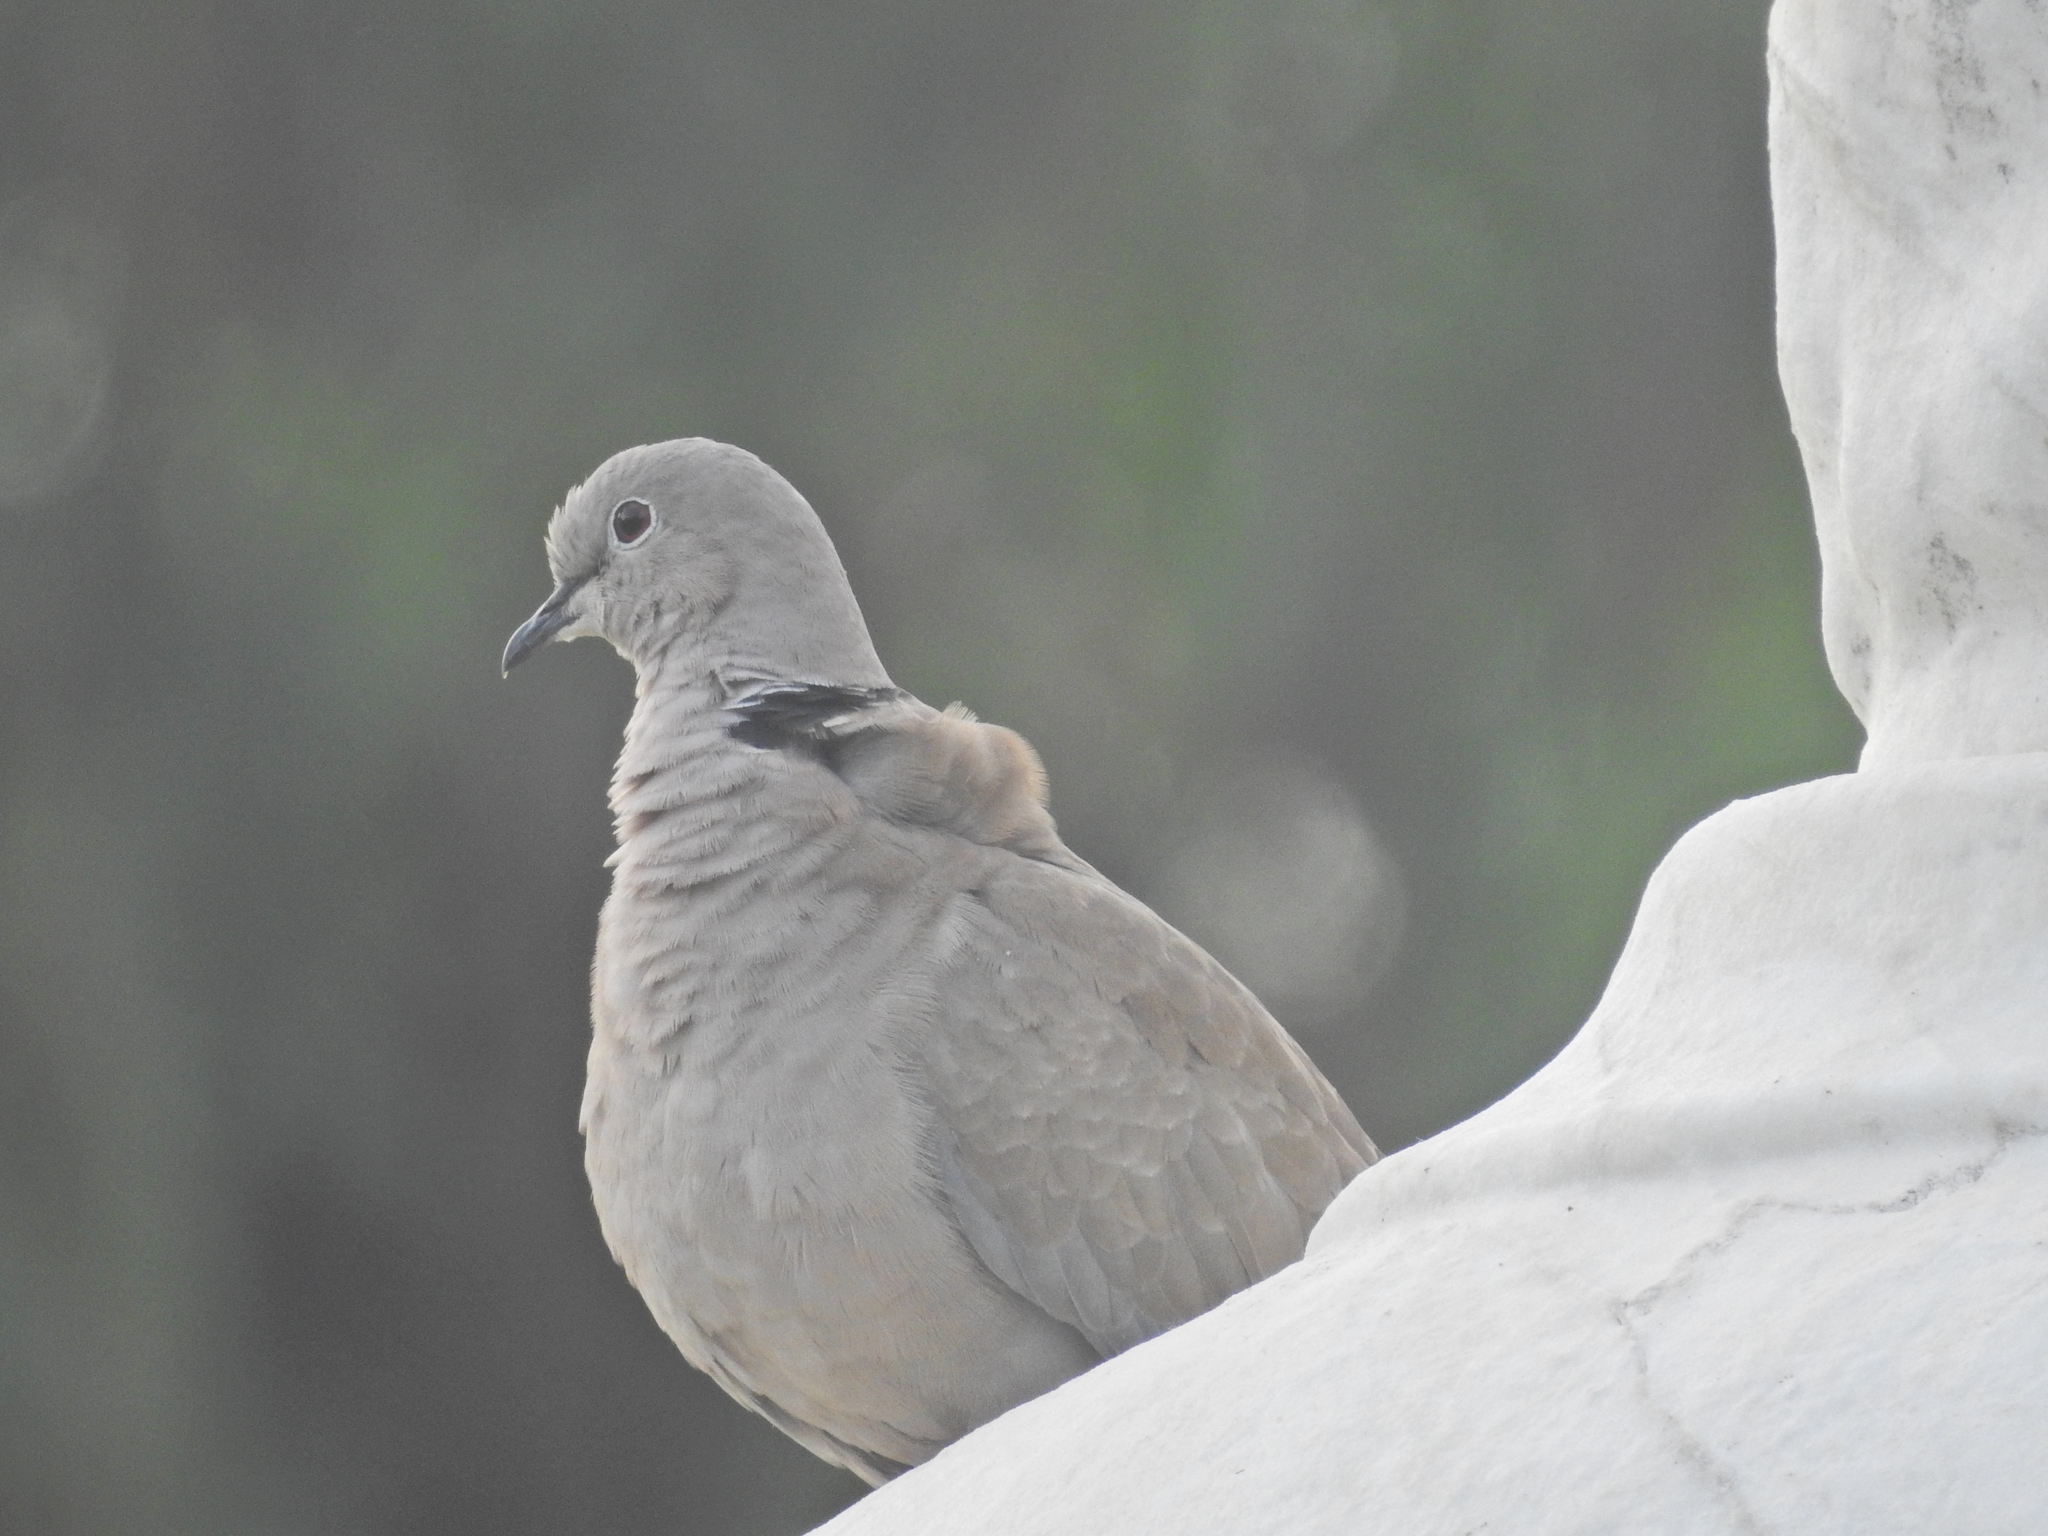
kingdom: Animalia
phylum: Chordata
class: Aves
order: Columbiformes
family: Columbidae
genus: Streptopelia
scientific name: Streptopelia decaocto
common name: Eurasian collared dove
